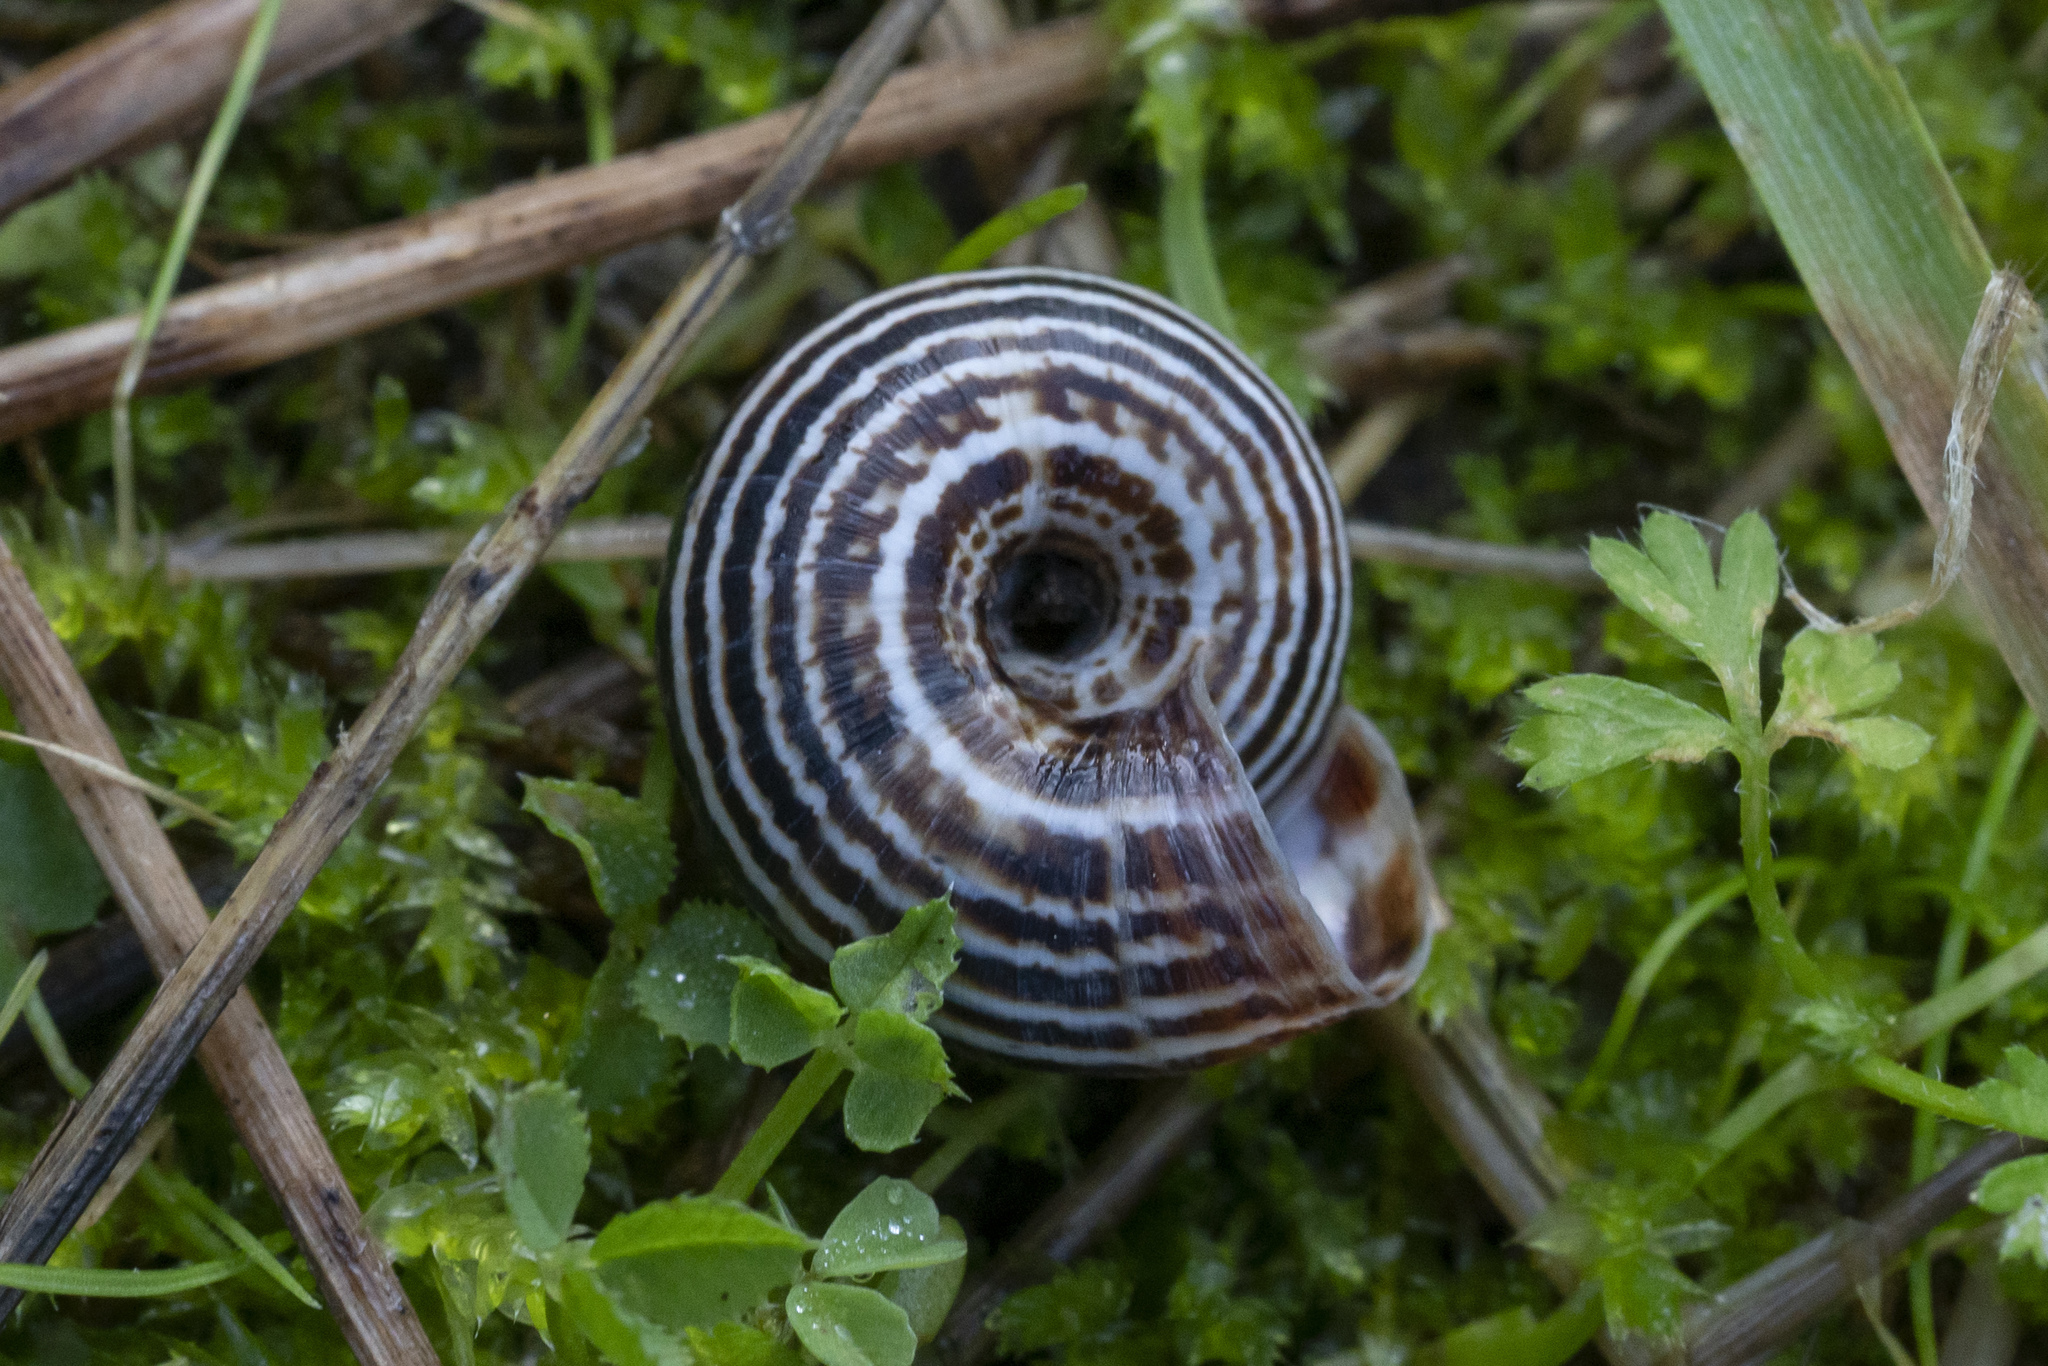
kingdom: Animalia
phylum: Mollusca
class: Gastropoda
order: Stylommatophora
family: Geomitridae
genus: Xeropicta
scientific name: Xeropicta krynickii
